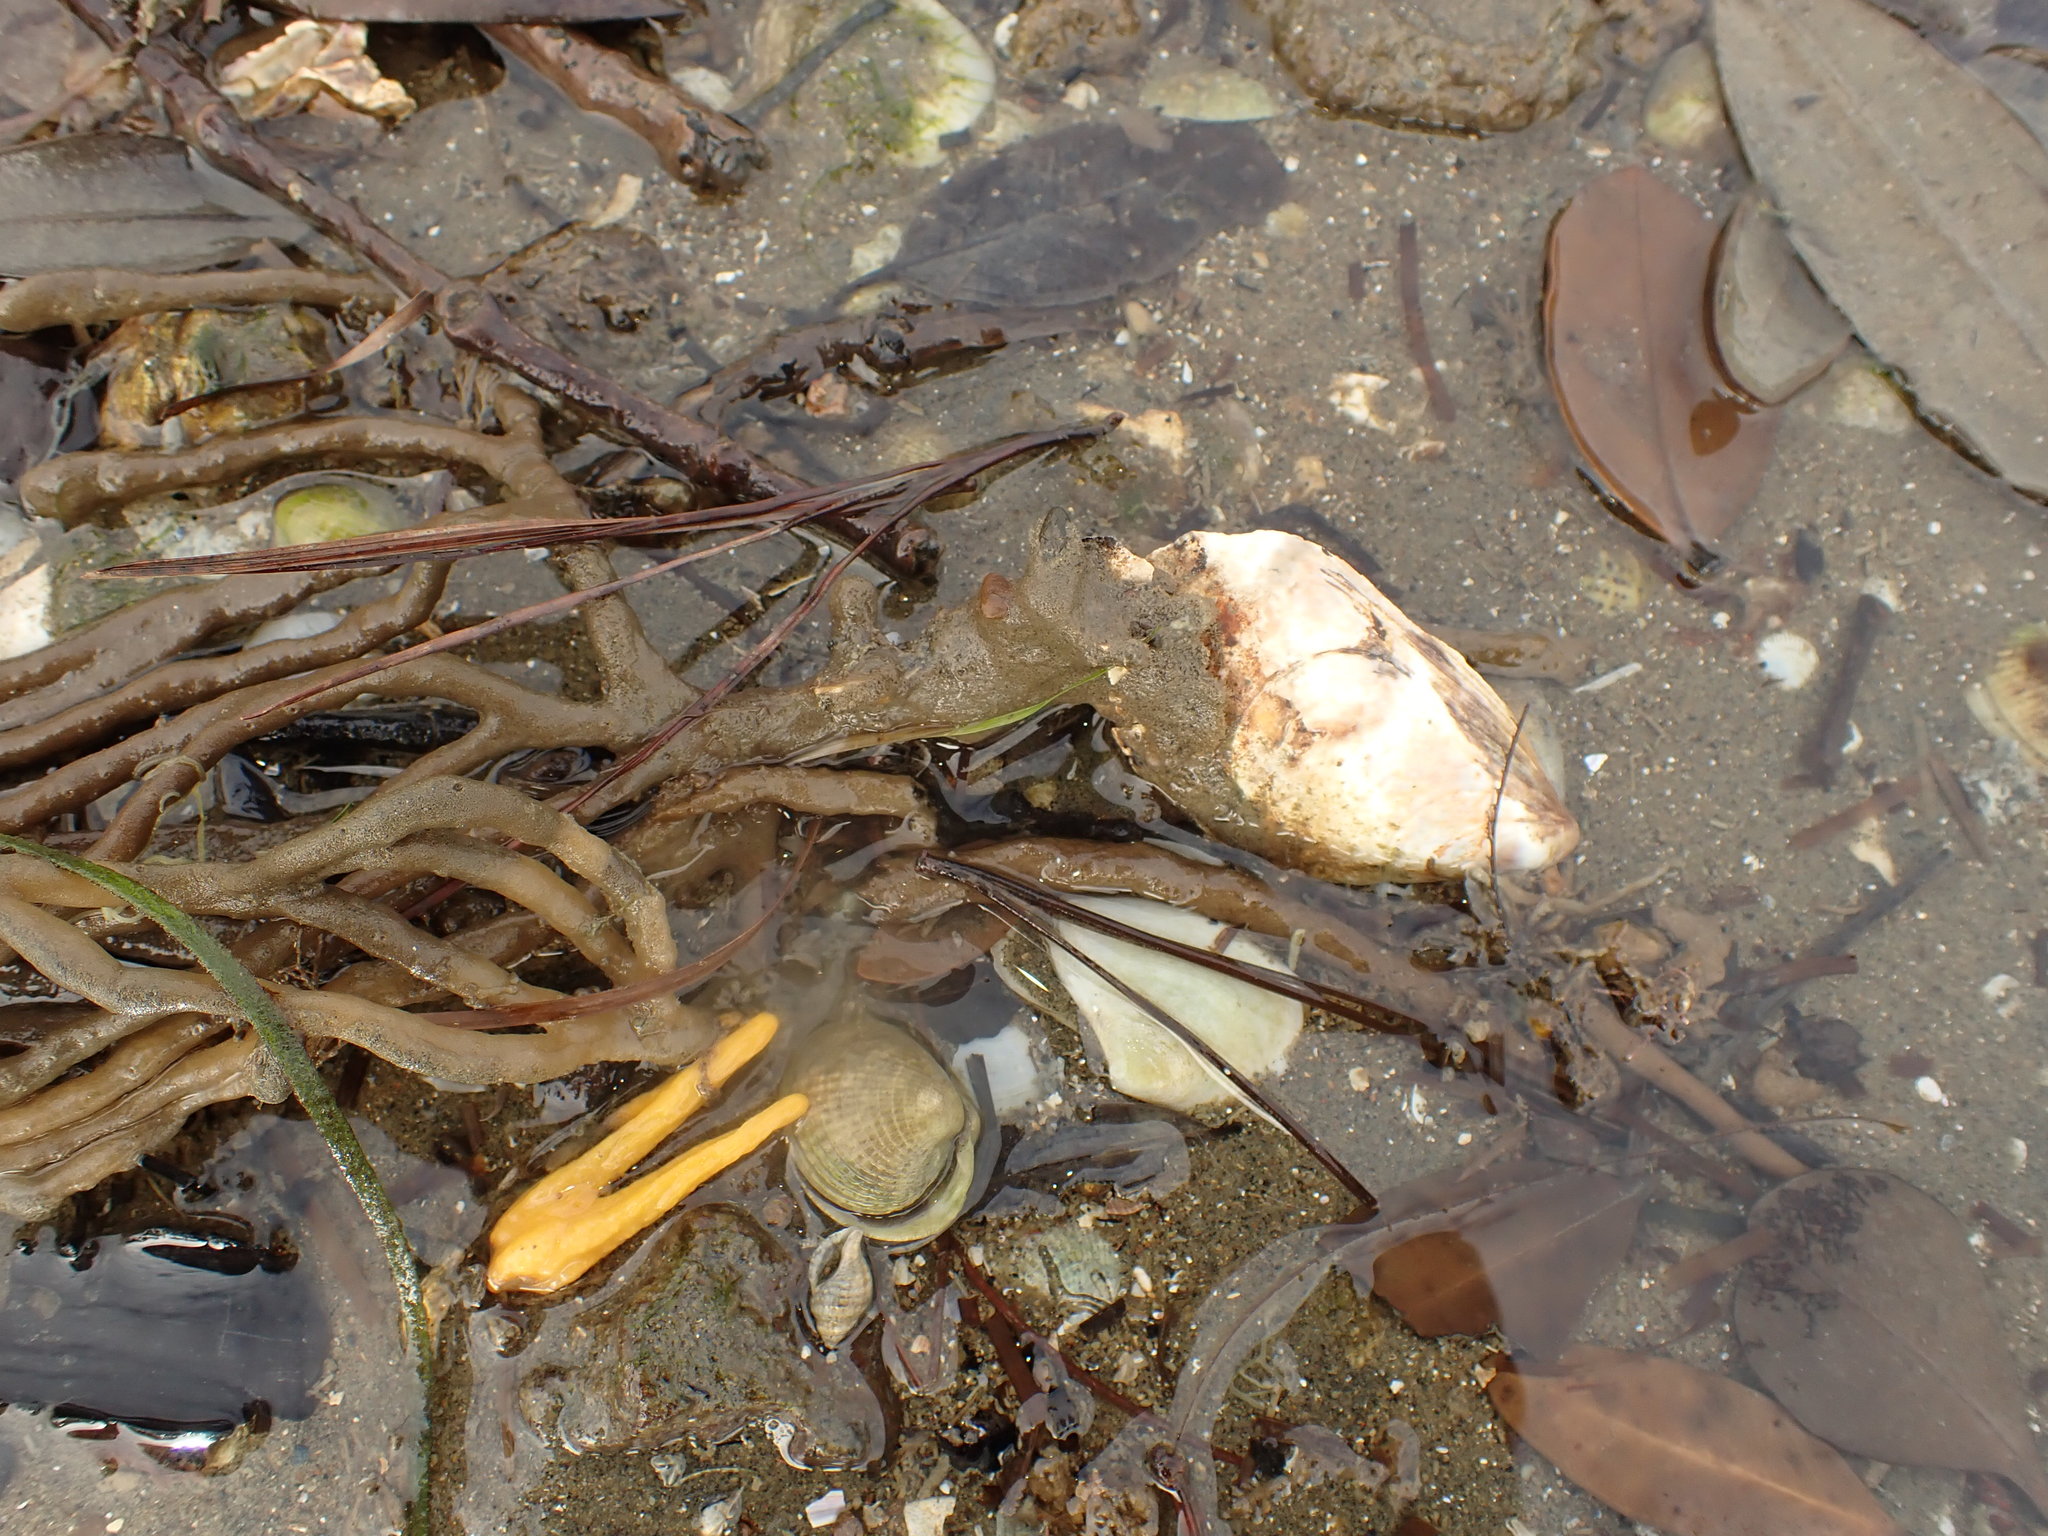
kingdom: Animalia
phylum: Mollusca
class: Bivalvia
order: Mytilida
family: Mytilidae
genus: Perna
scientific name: Perna canaliculus
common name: New zealand greenshelltm
